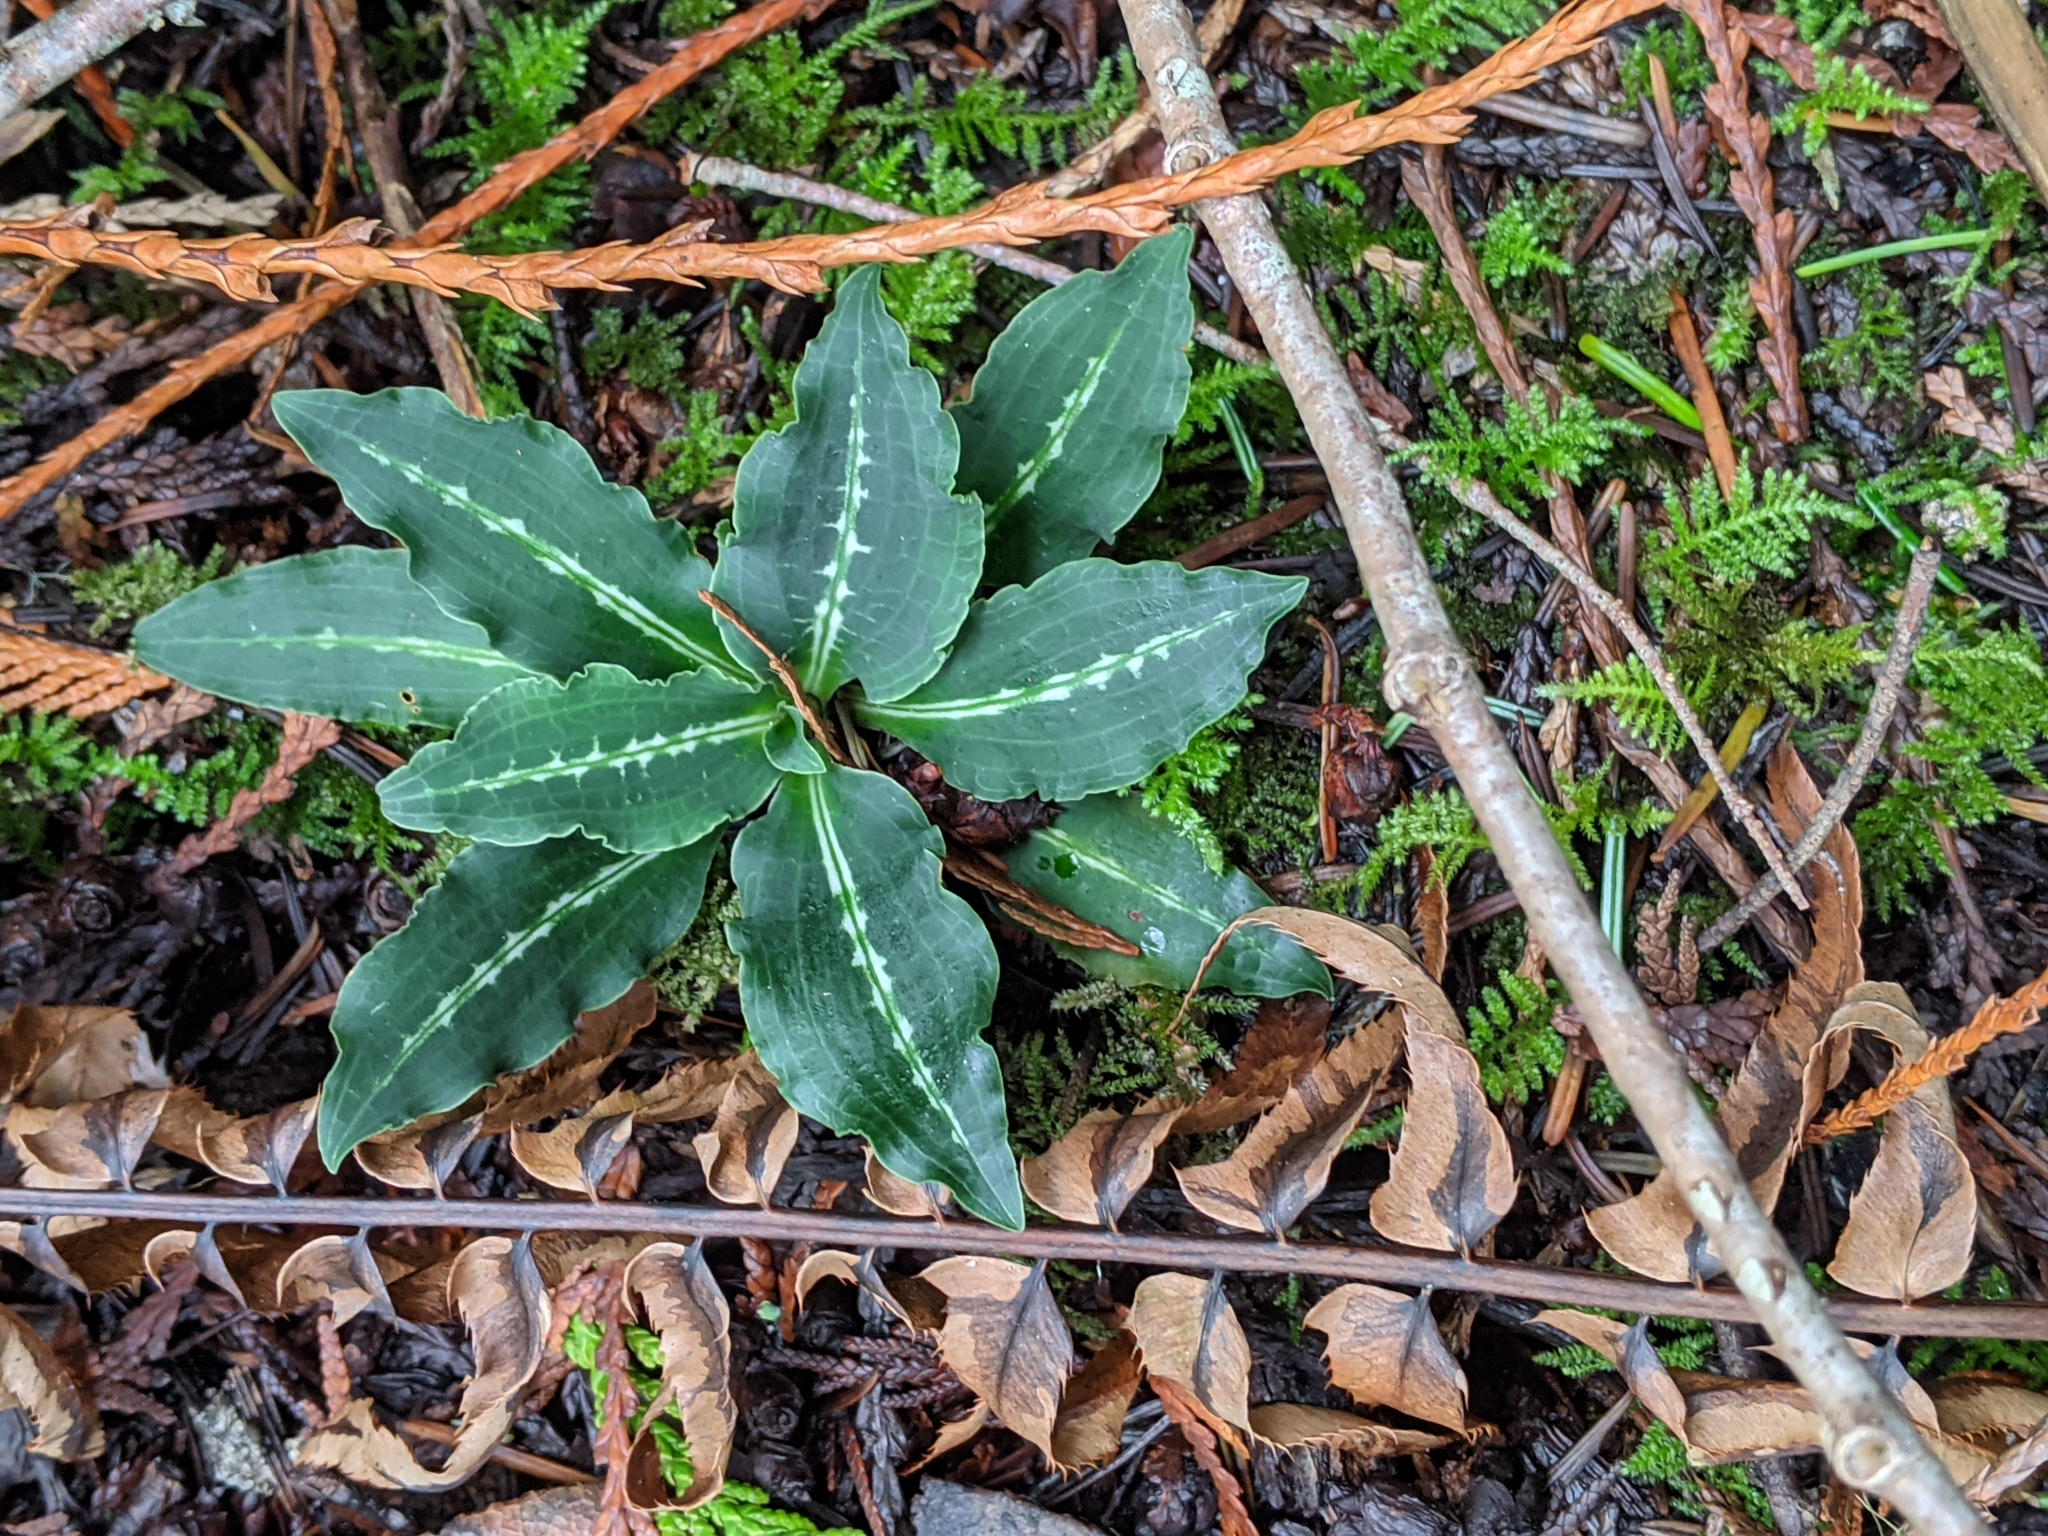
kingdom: Plantae
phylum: Tracheophyta
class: Liliopsida
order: Asparagales
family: Orchidaceae
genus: Goodyera
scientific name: Goodyera oblongifolia
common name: Giant rattlesnake-plantain
